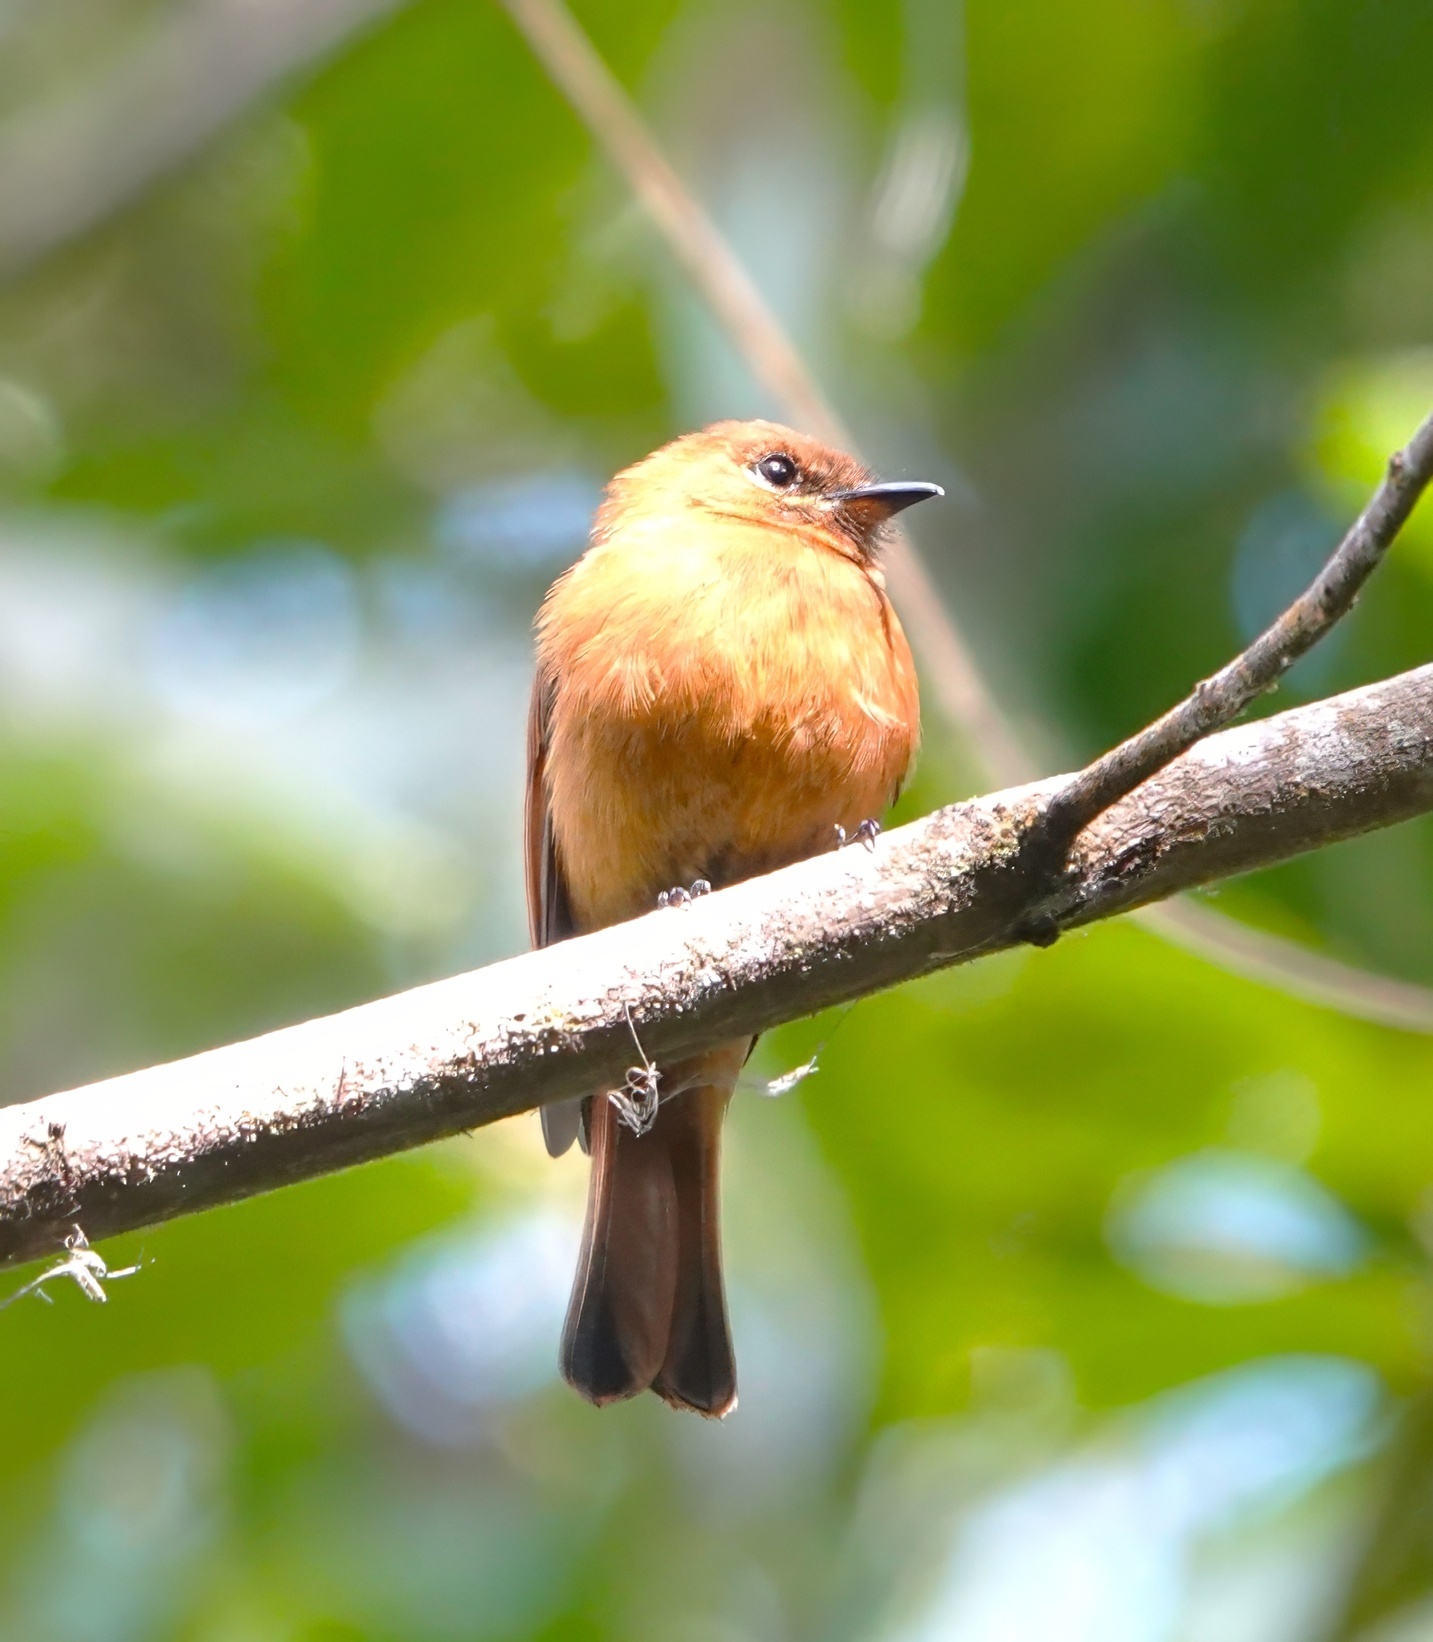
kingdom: Animalia
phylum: Chordata
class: Aves
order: Passeriformes
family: Tyrannidae
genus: Pyrrhomyias
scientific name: Pyrrhomyias cinnamomeus
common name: Cinnamon flycatcher
